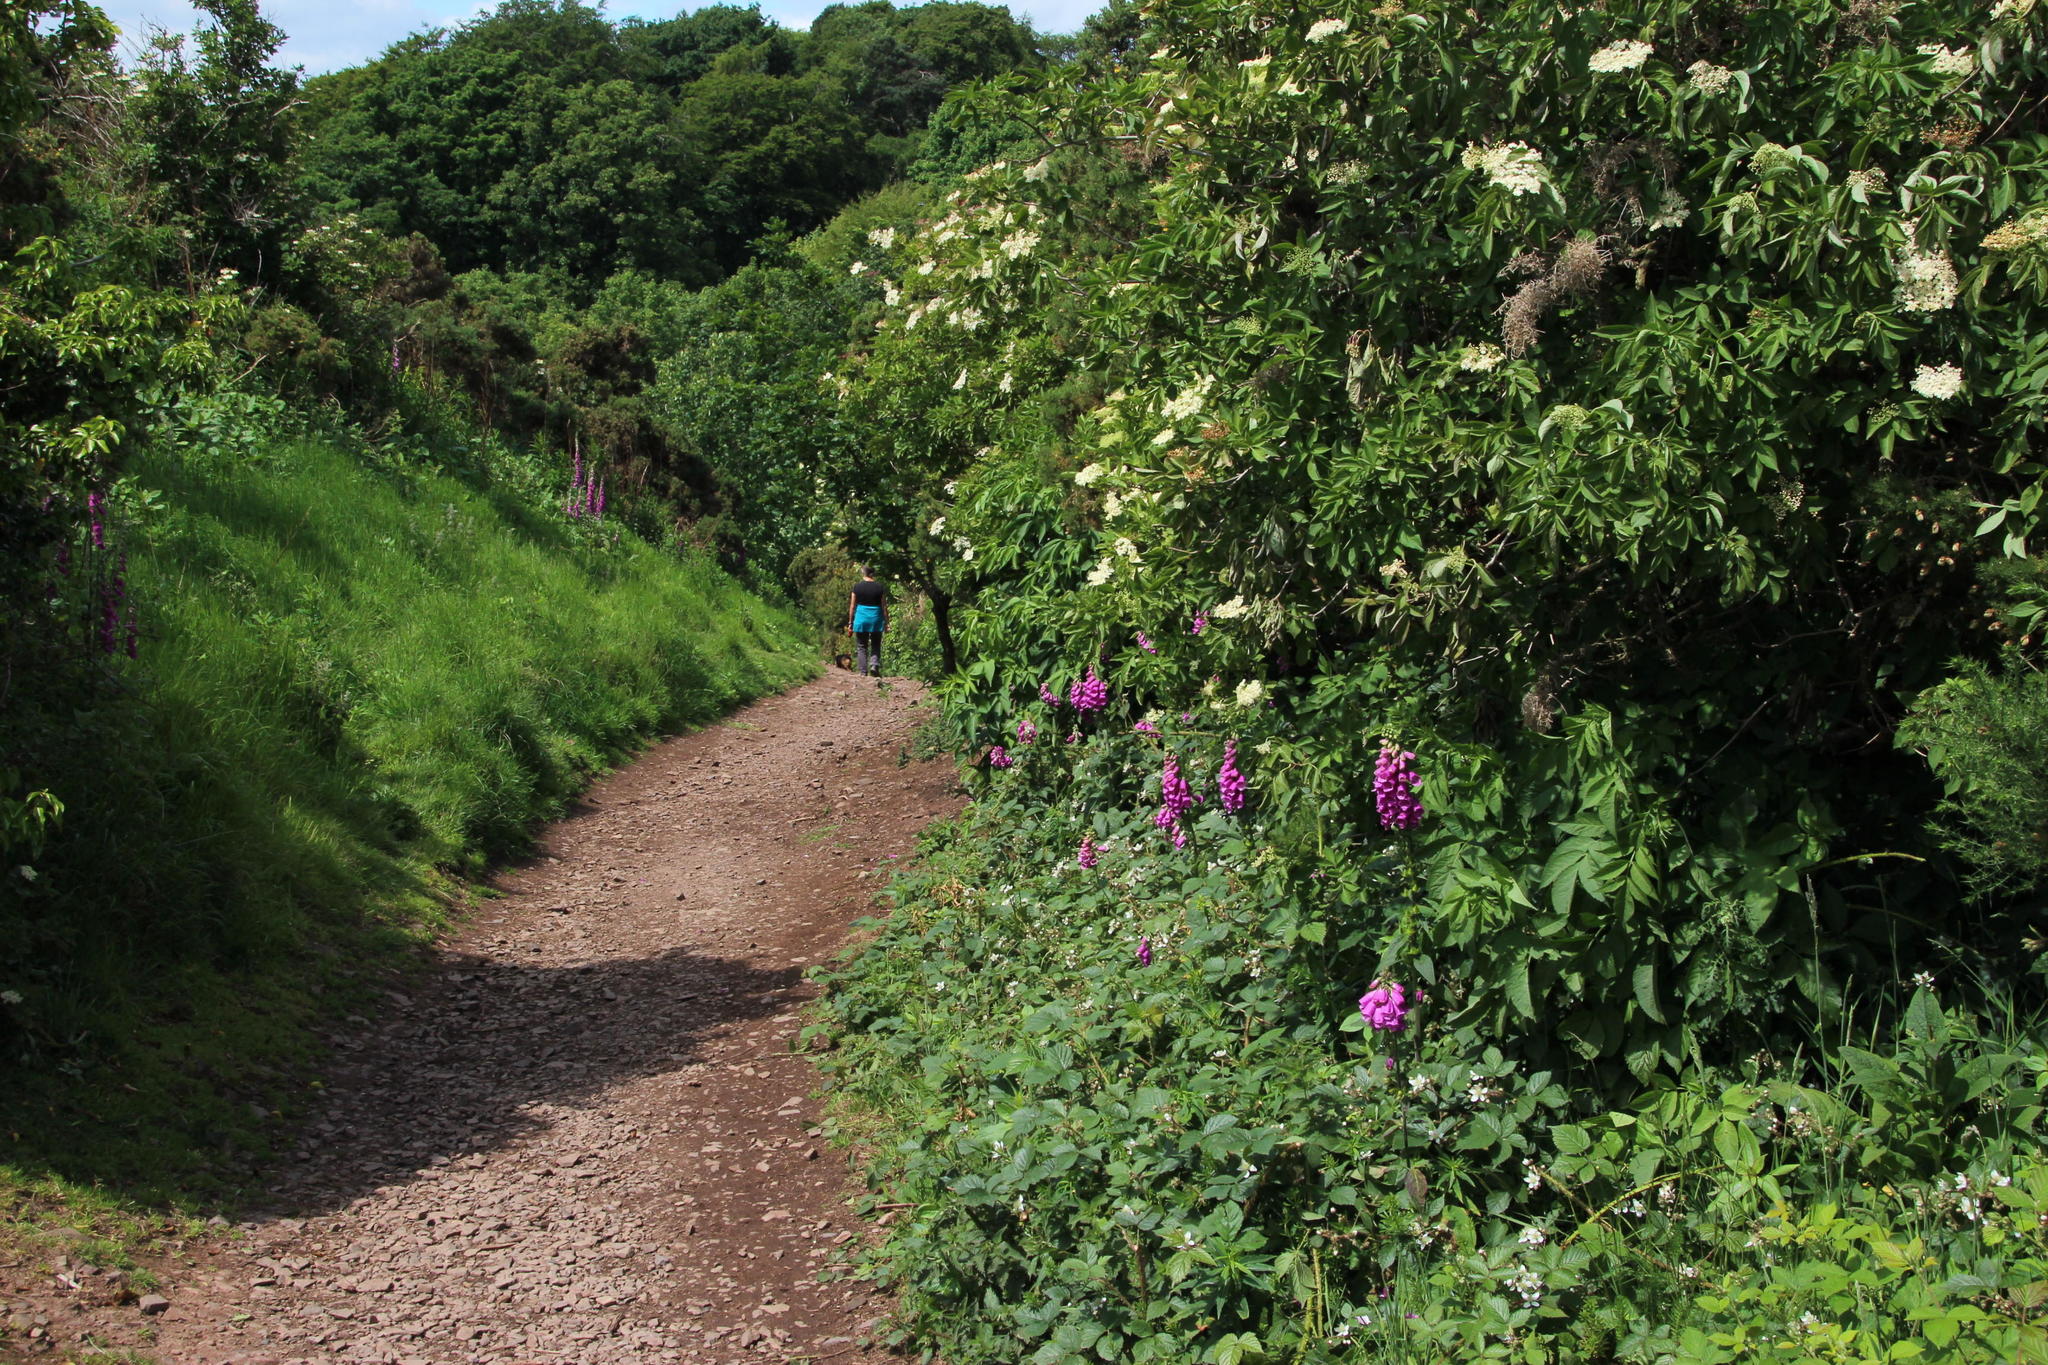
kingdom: Plantae
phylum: Tracheophyta
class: Magnoliopsida
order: Lamiales
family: Plantaginaceae
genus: Digitalis
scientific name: Digitalis purpurea
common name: Foxglove
